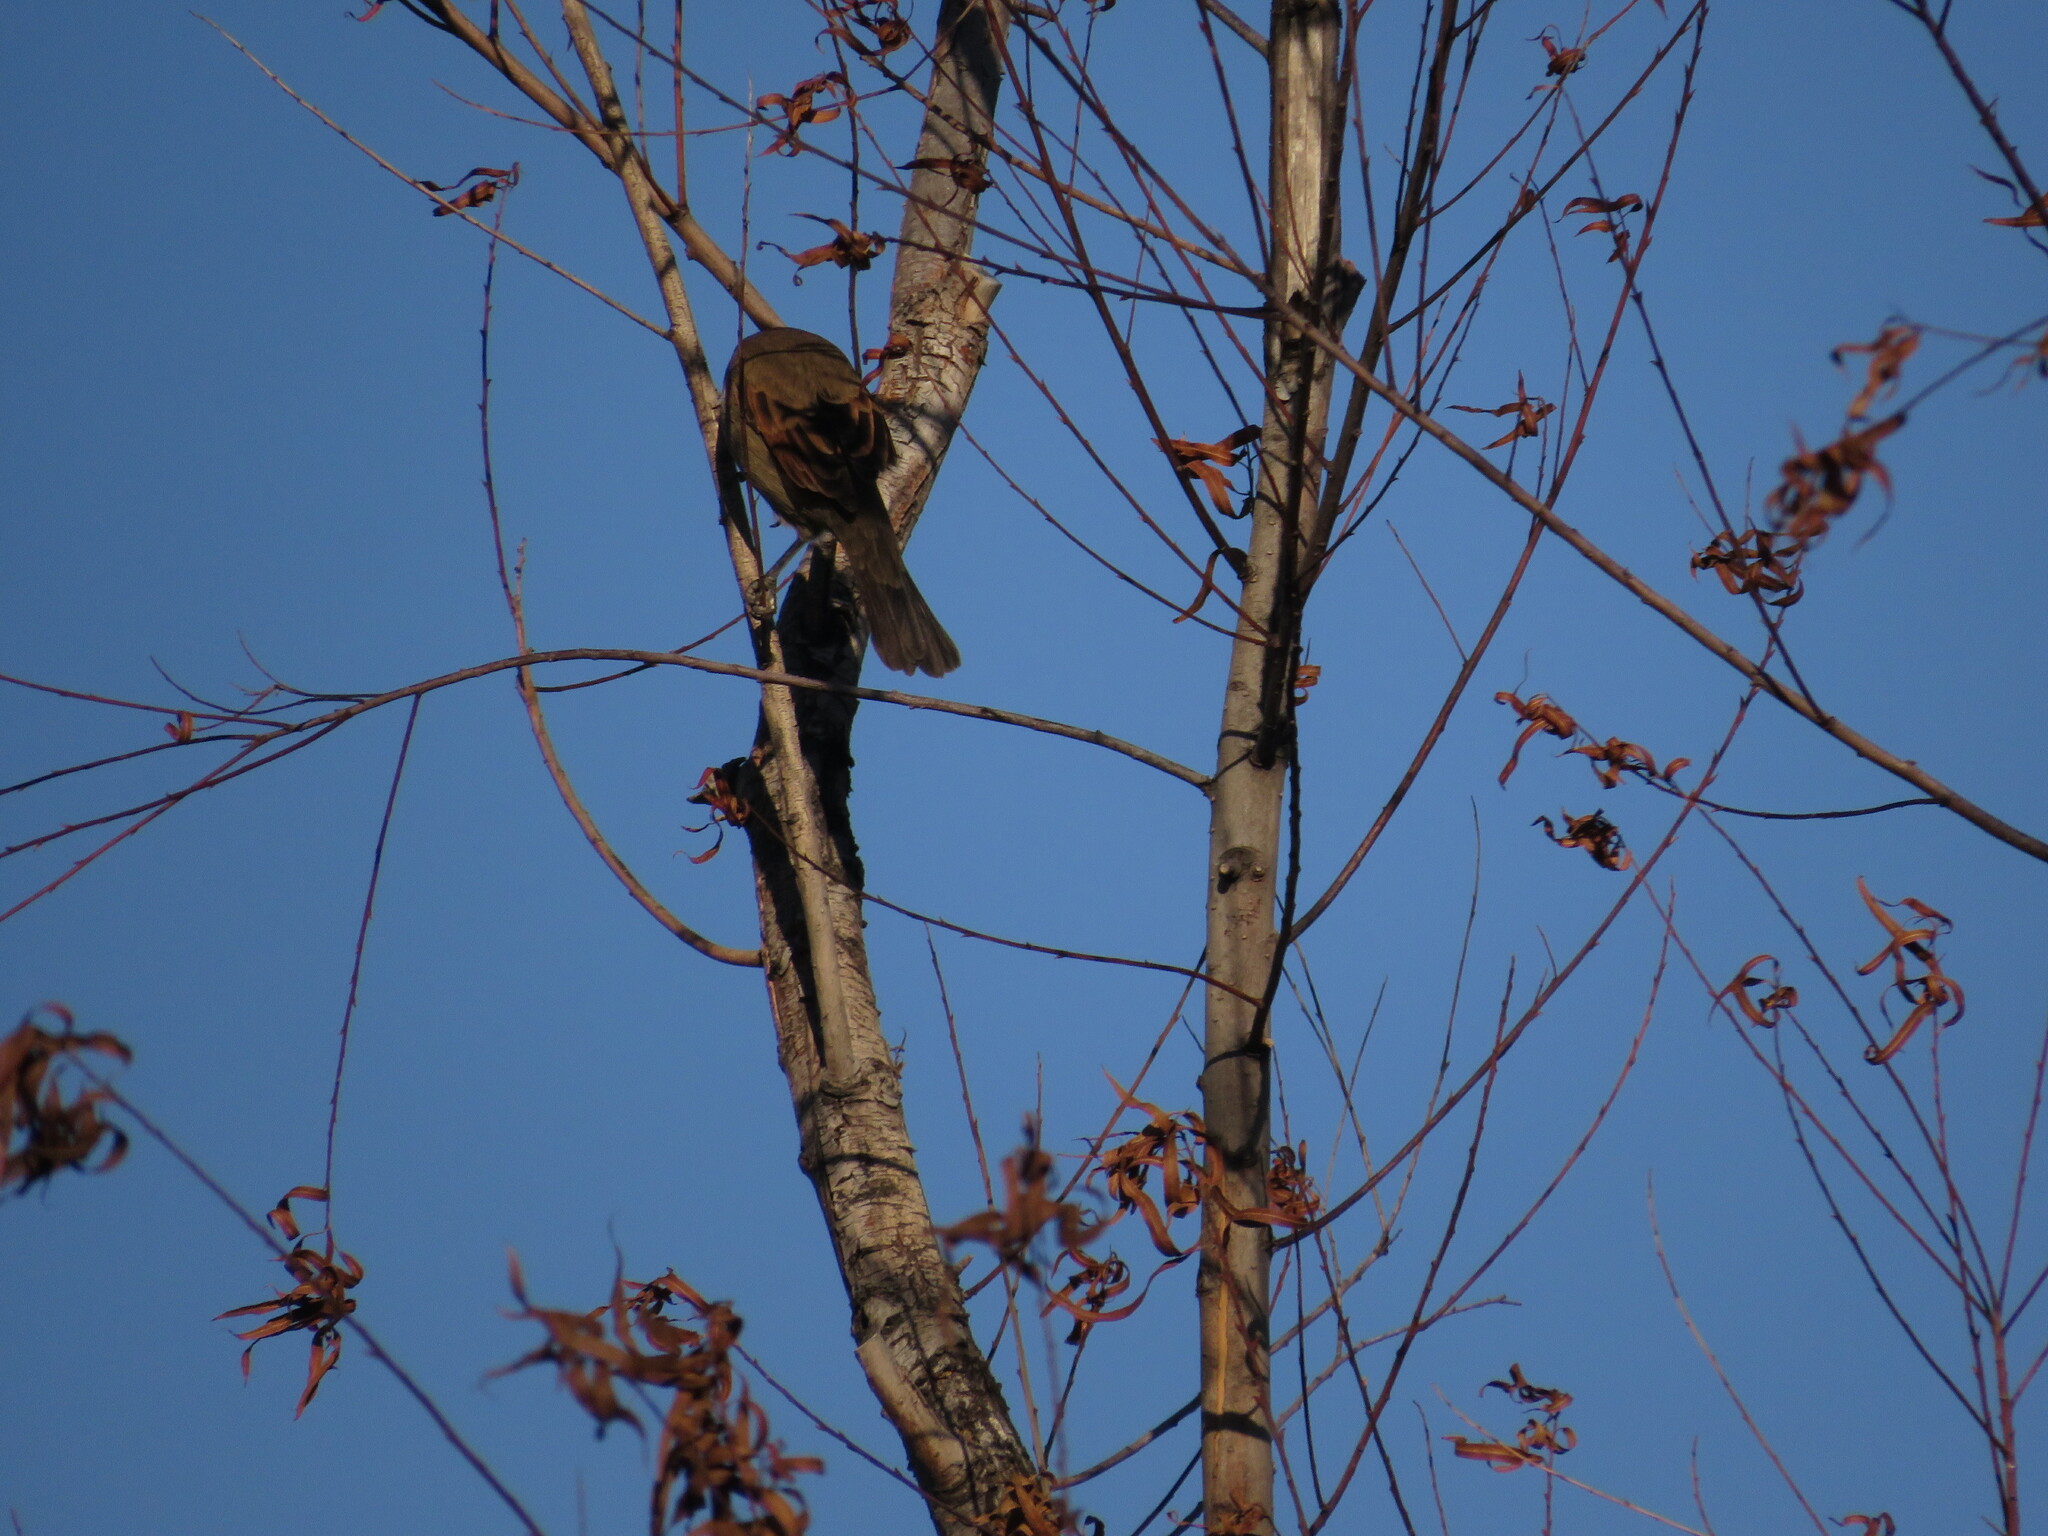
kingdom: Animalia
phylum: Chordata
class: Aves
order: Passeriformes
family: Icteridae
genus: Agelaioides
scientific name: Agelaioides badius
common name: Baywing
